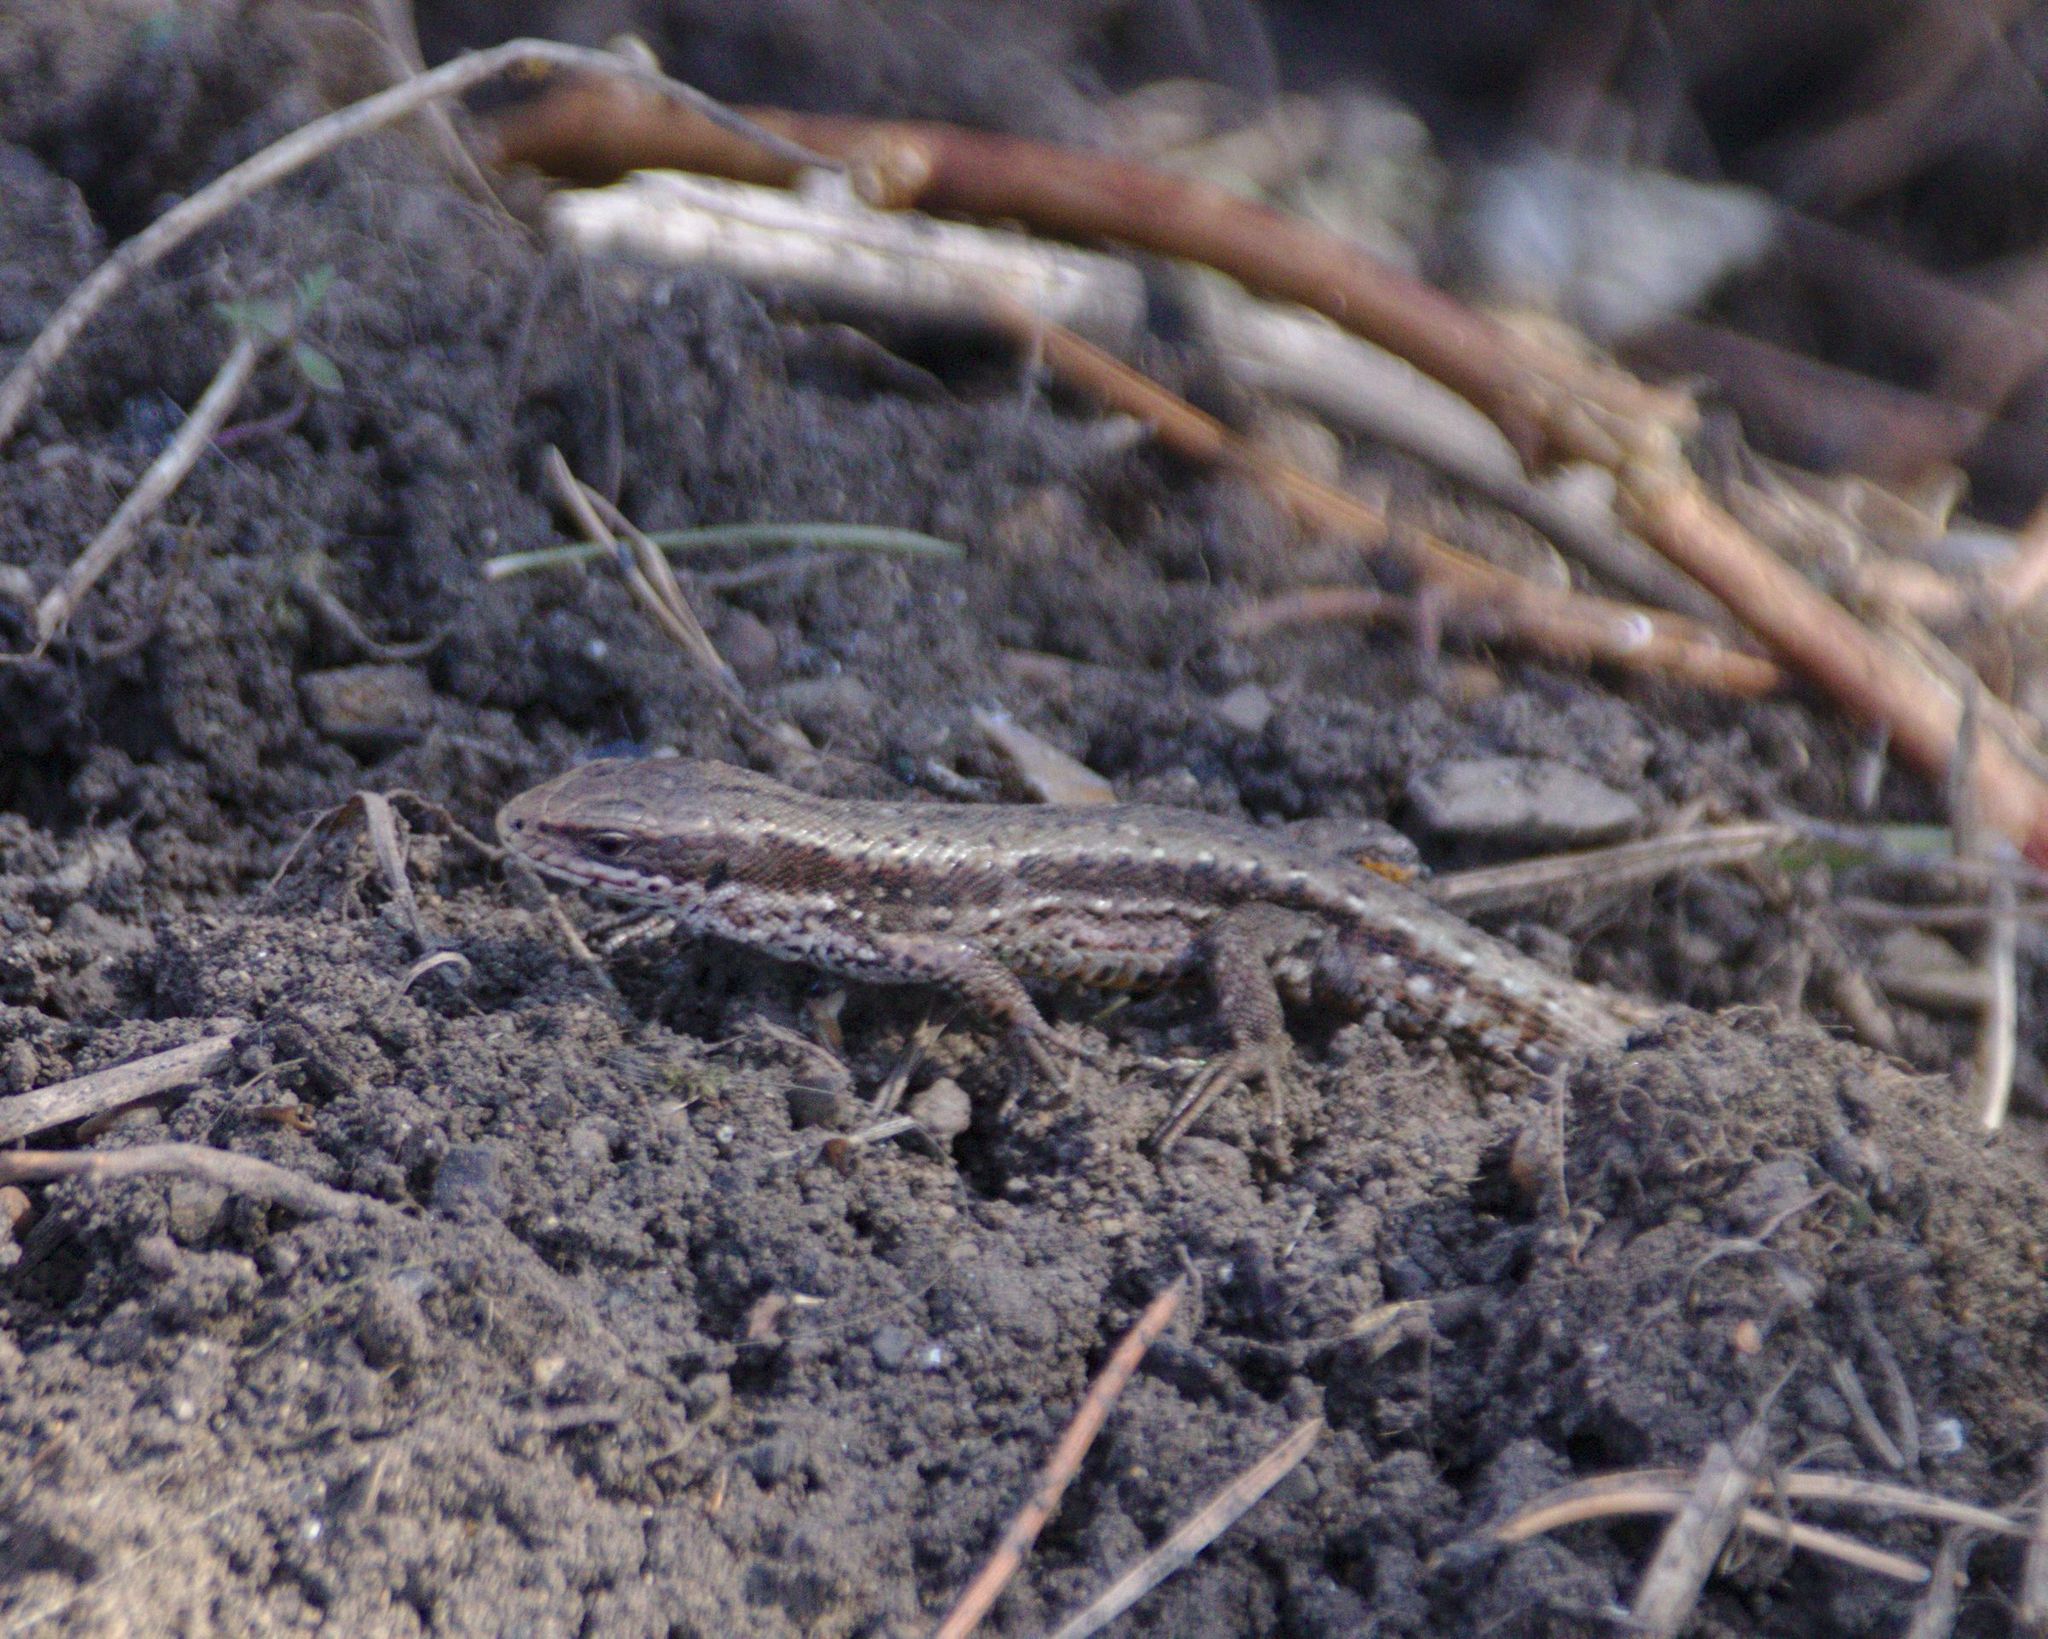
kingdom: Animalia
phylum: Chordata
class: Squamata
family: Lacertidae
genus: Zootoca
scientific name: Zootoca vivipara
